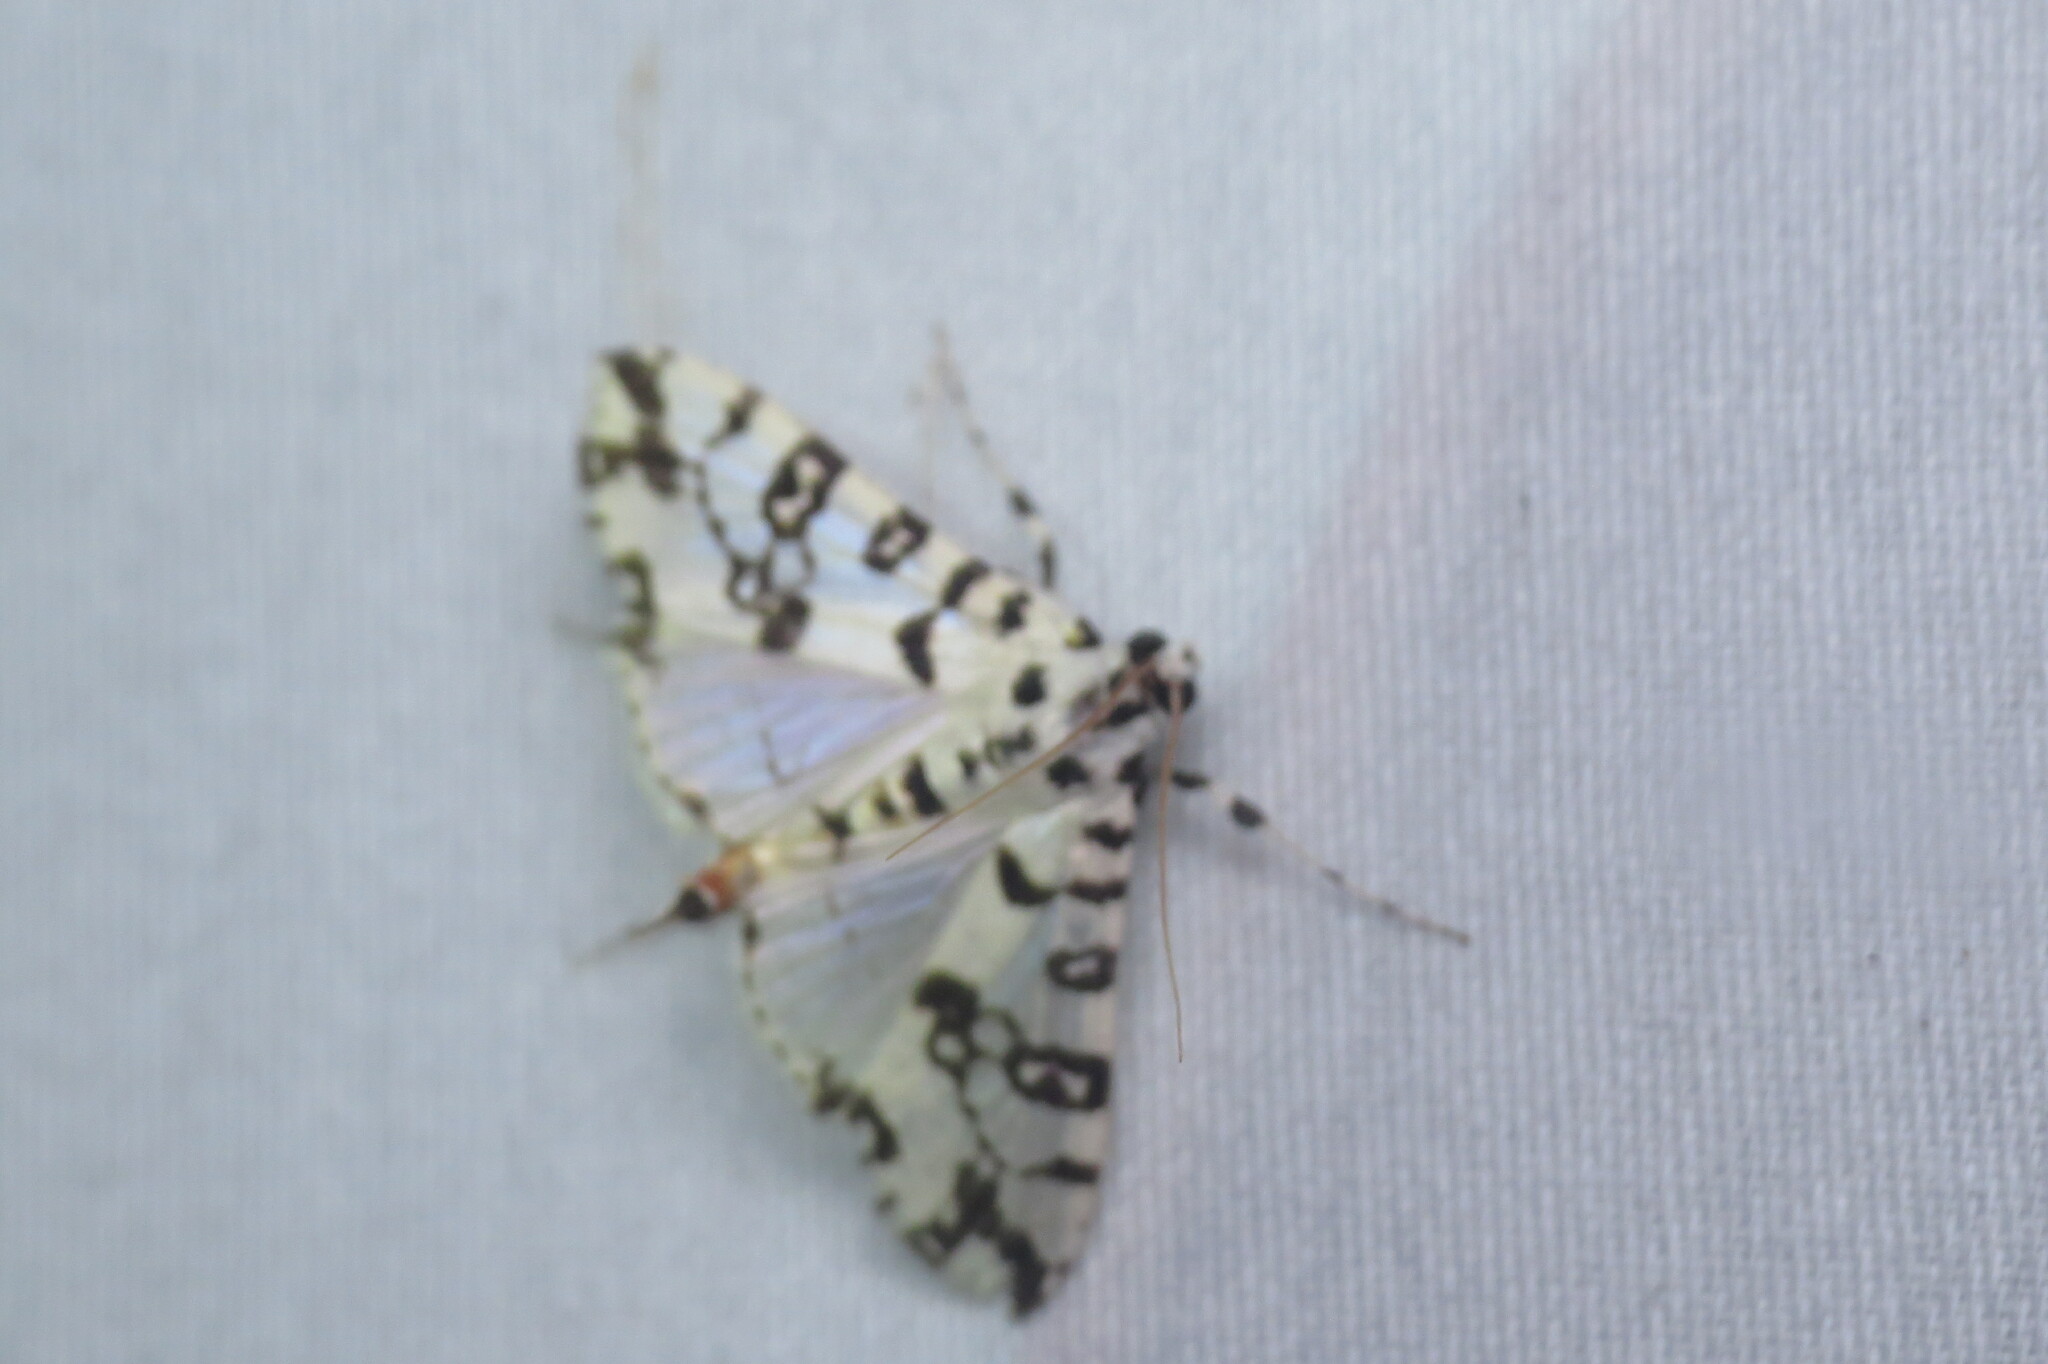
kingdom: Animalia
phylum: Arthropoda
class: Insecta
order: Lepidoptera
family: Crambidae
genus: Conchylodes
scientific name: Conchylodes diphteralis
